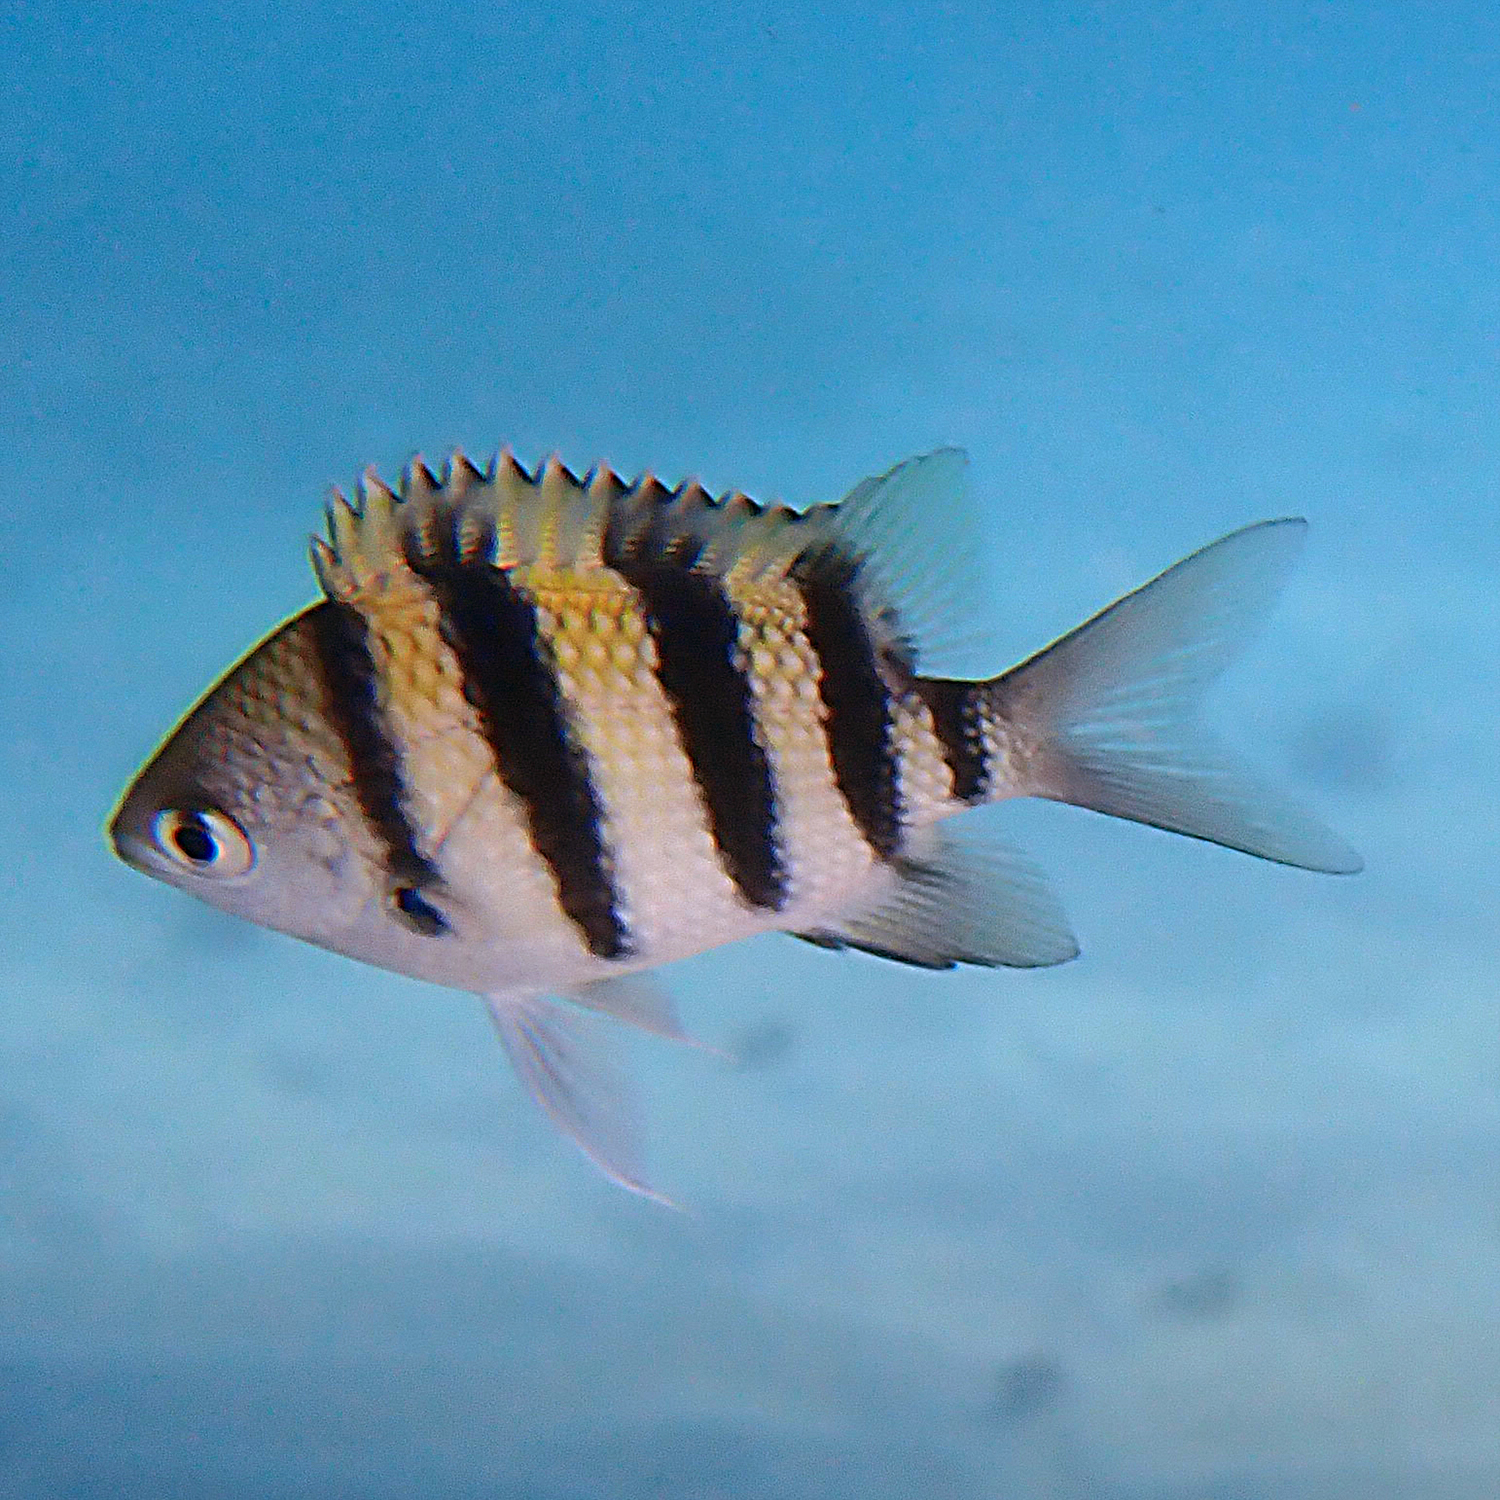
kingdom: Animalia
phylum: Chordata
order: Perciformes
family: Pomacentridae
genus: Abudefduf
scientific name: Abudefduf vaigiensis
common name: Indo-pacific sergeant
